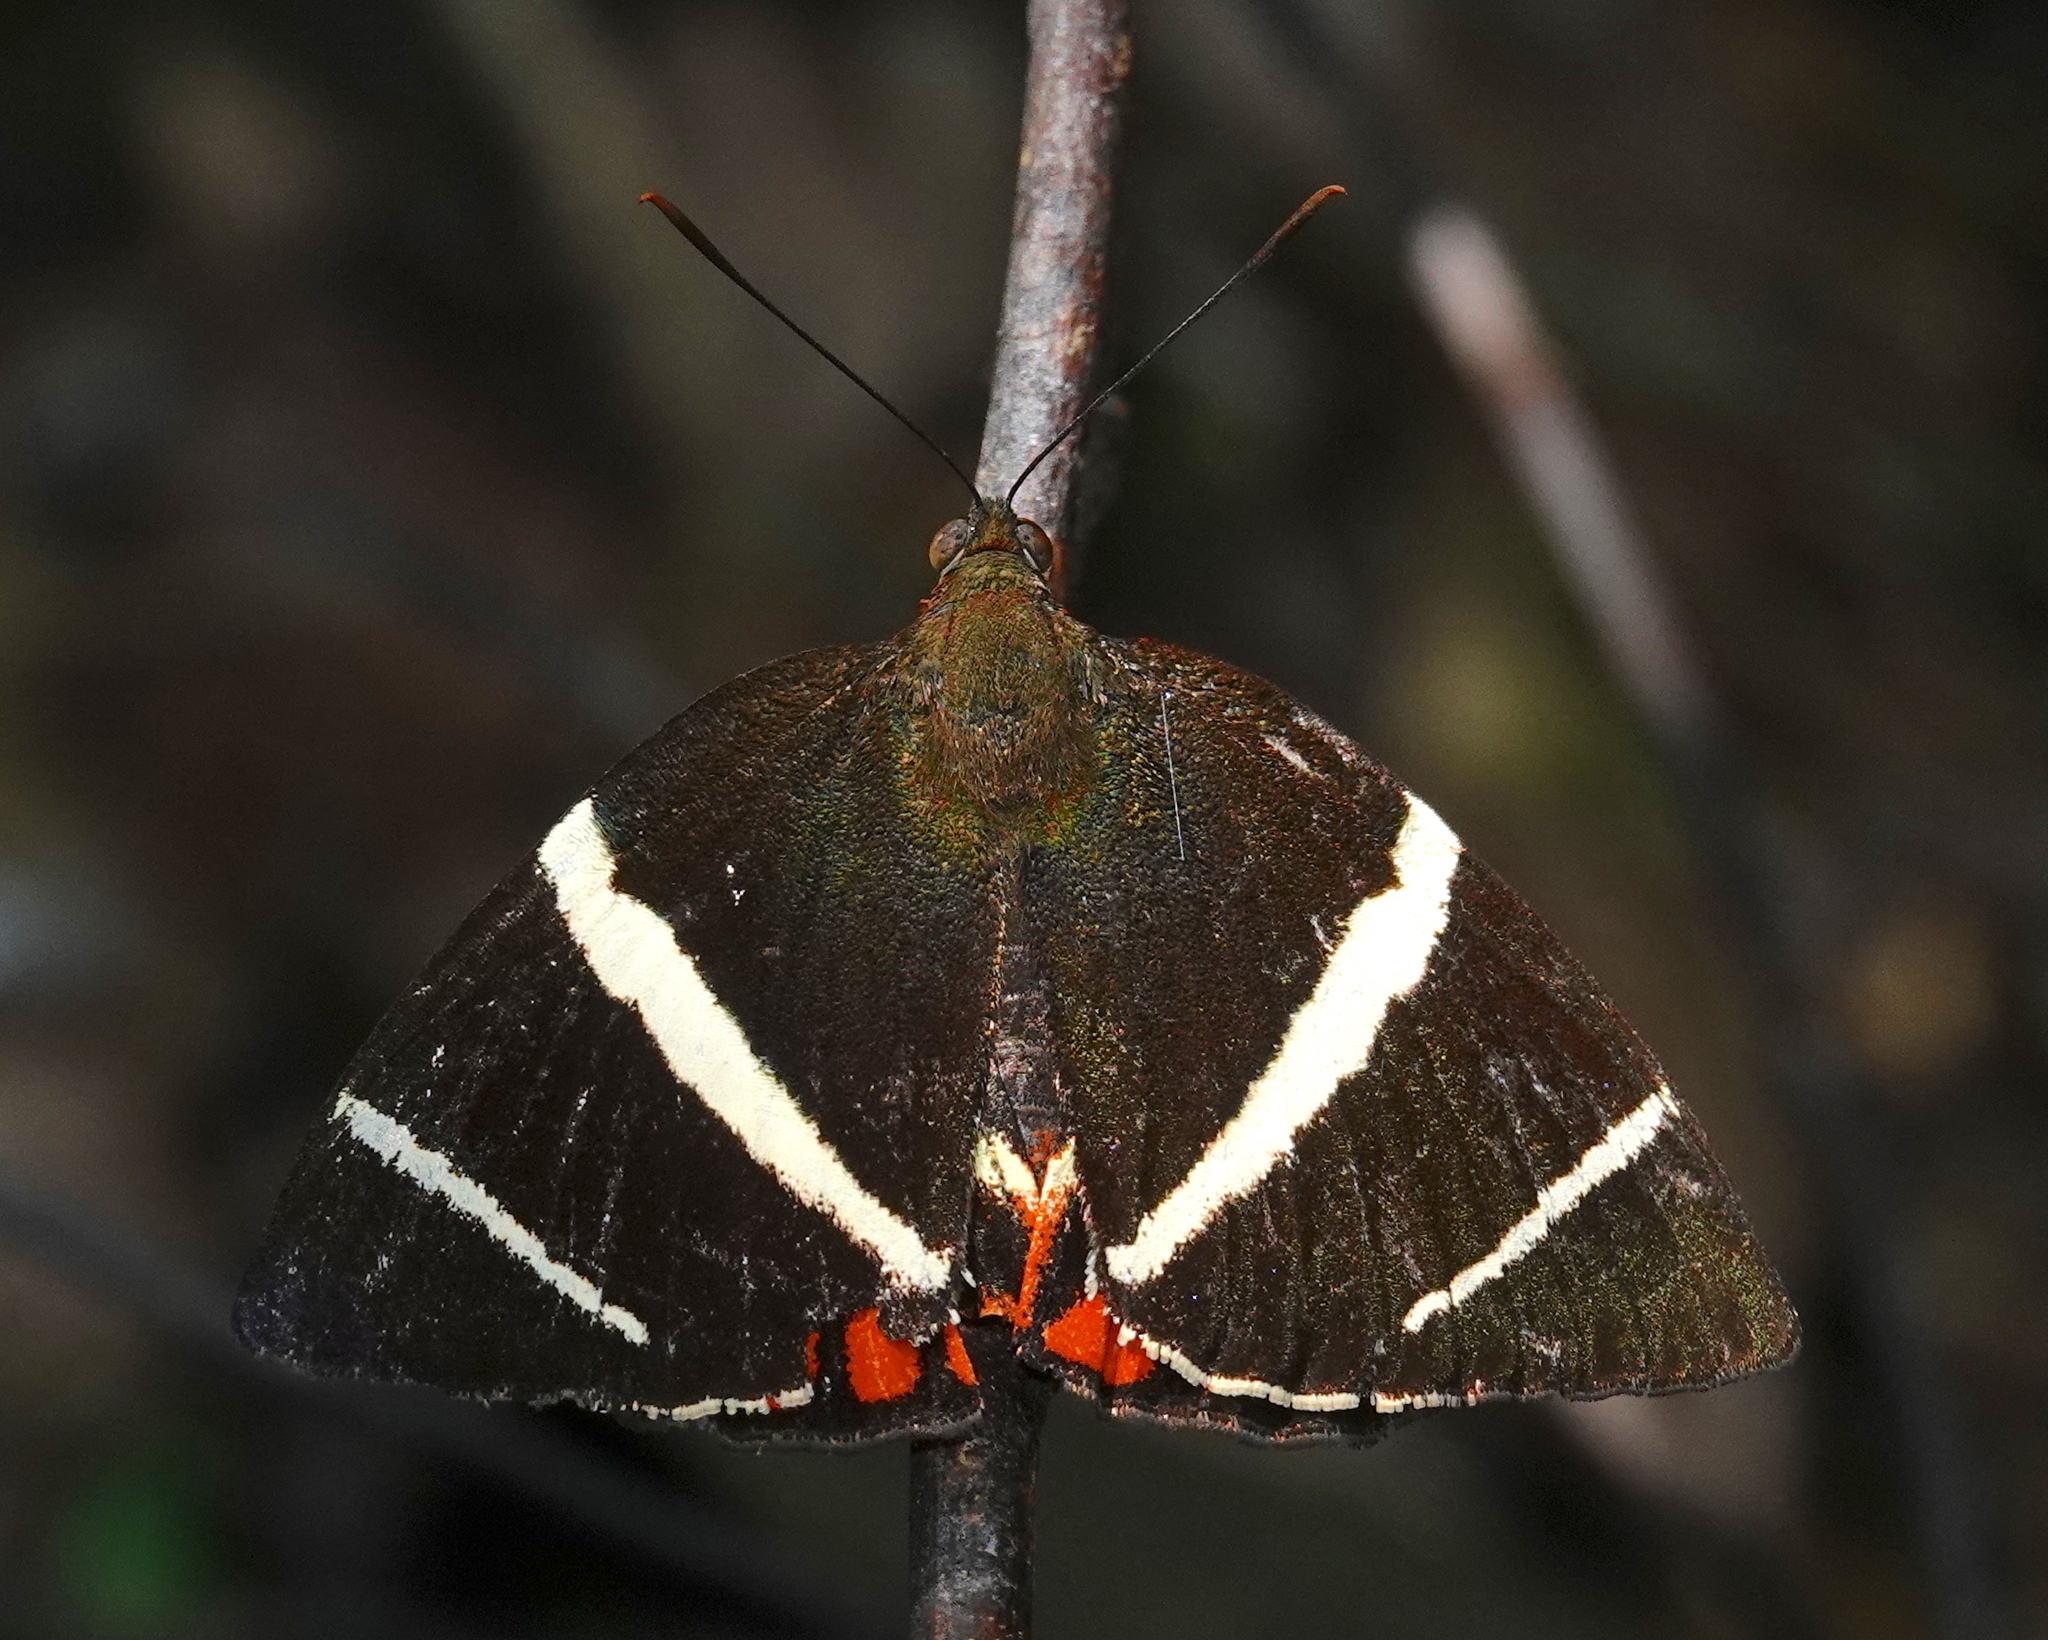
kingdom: Animalia
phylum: Arthropoda
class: Insecta
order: Lepidoptera
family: Castniidae
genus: Telchin
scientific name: Telchin
